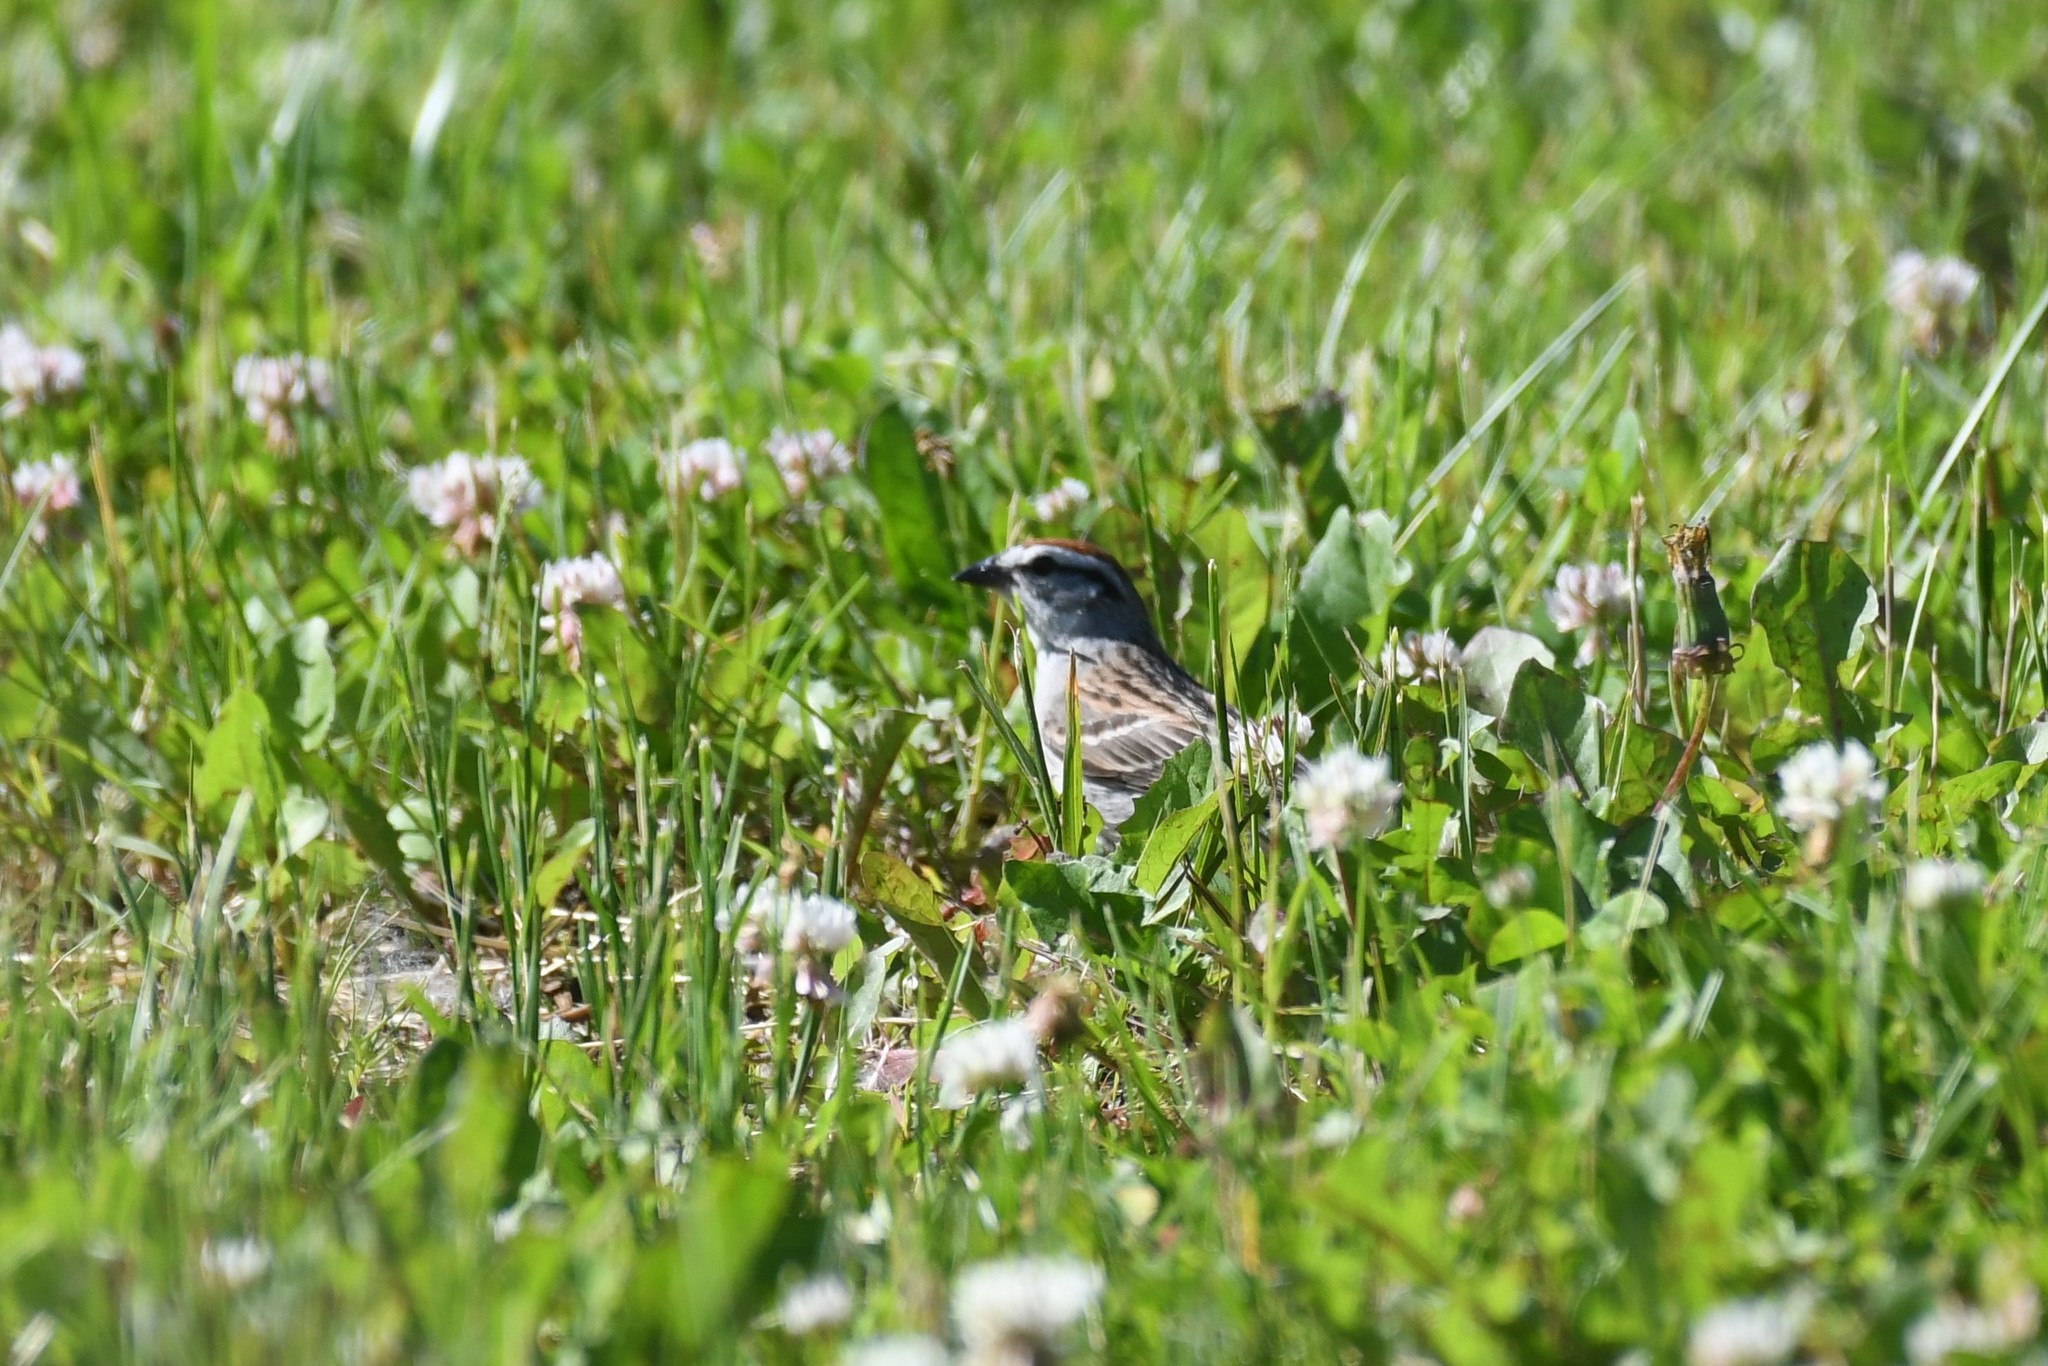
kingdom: Animalia
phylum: Chordata
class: Aves
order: Passeriformes
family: Passerellidae
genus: Spizella
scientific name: Spizella passerina
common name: Chipping sparrow
